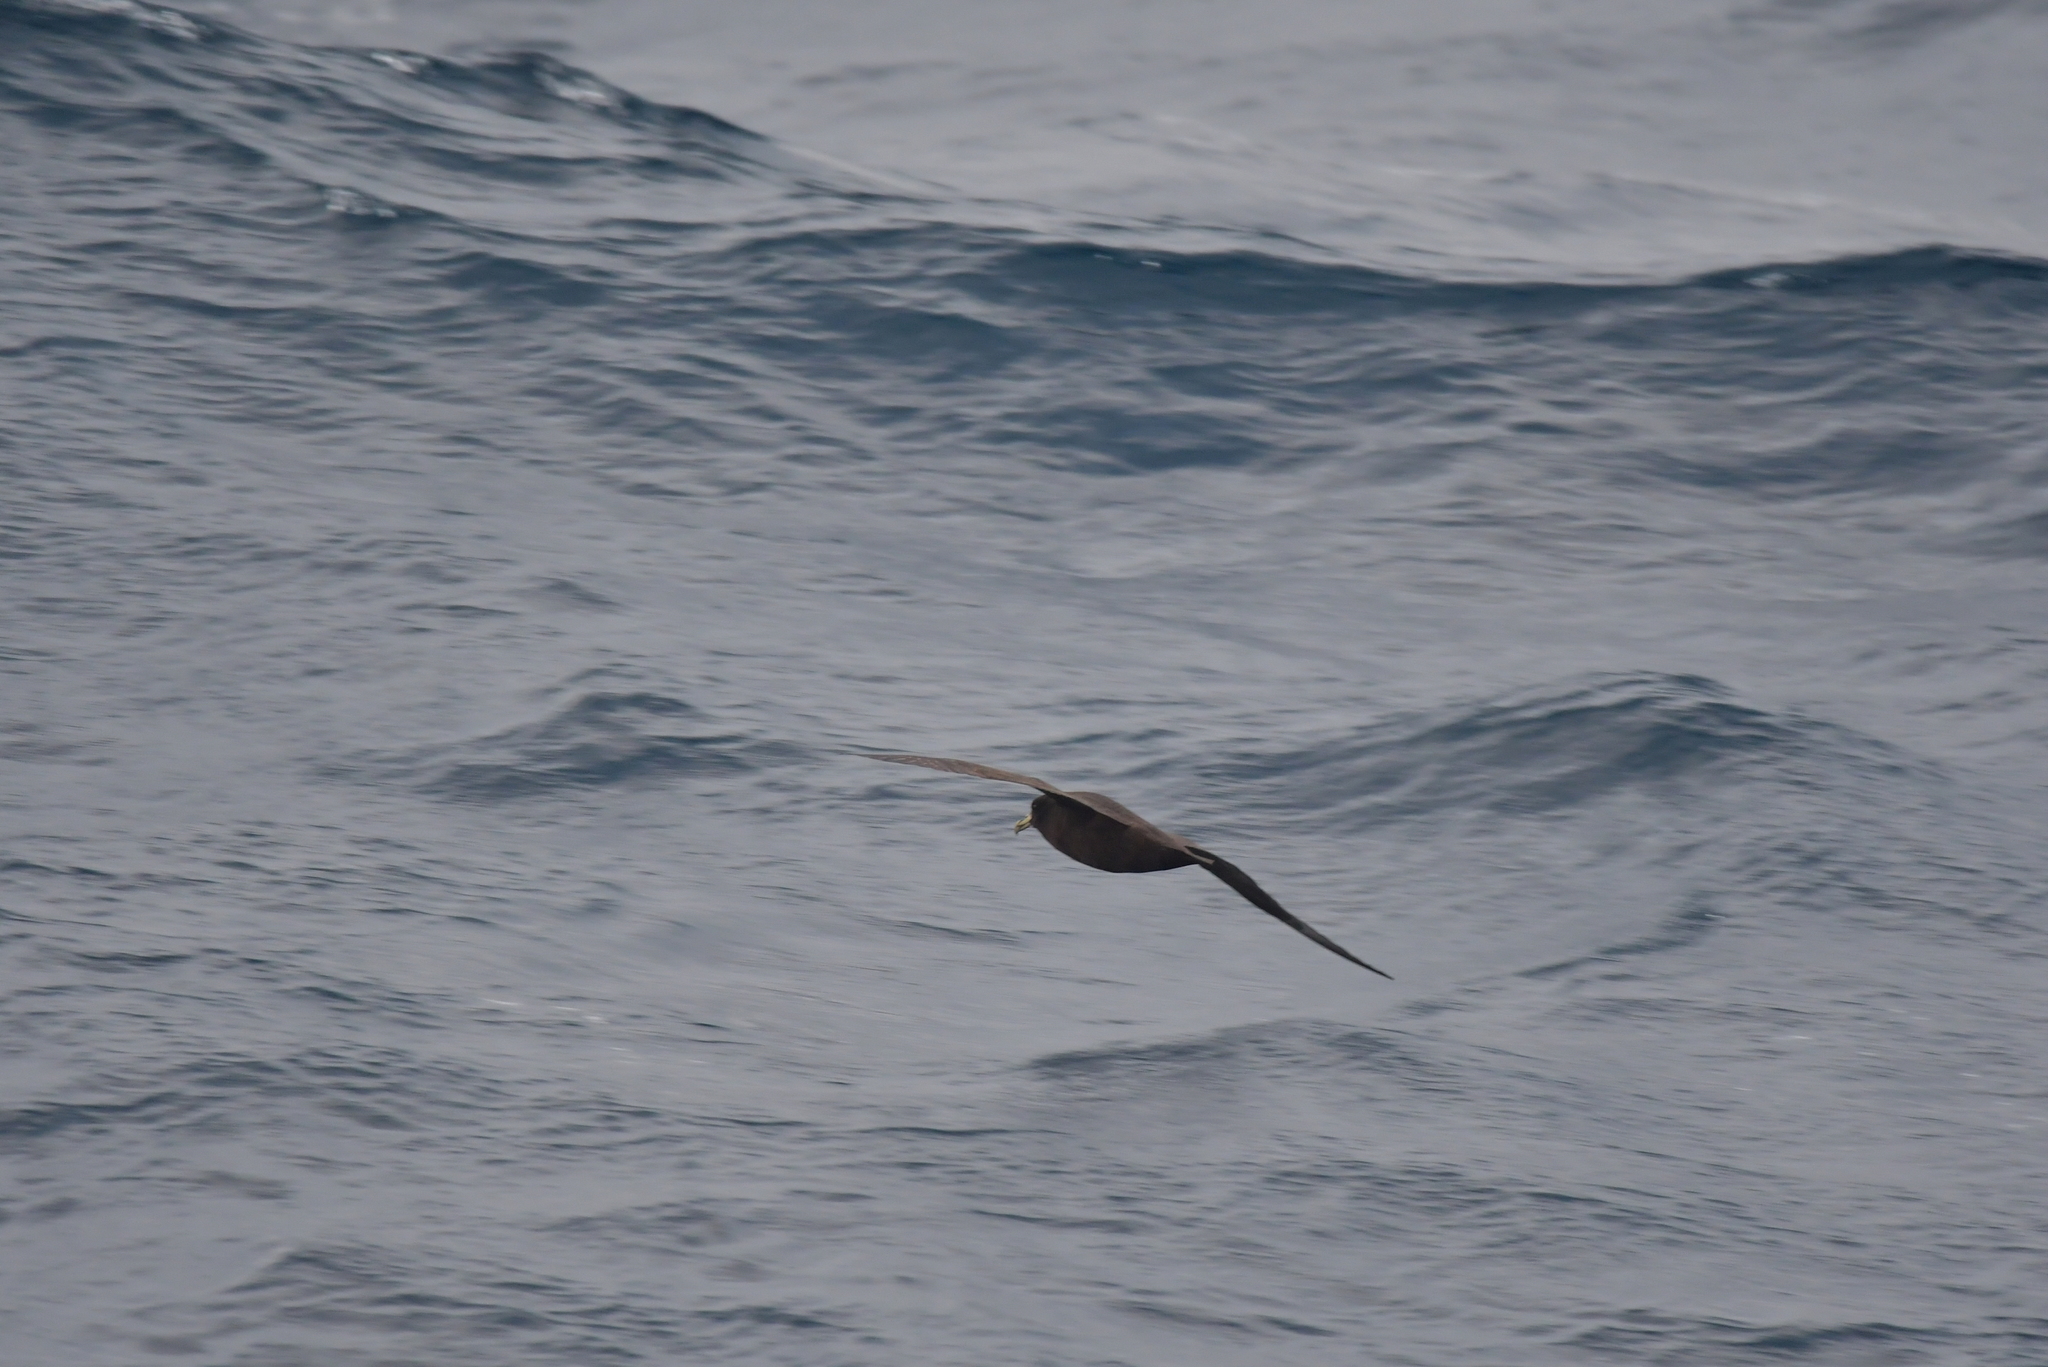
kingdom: Animalia
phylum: Chordata
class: Aves
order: Procellariiformes
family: Procellariidae
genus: Procellaria
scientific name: Procellaria aequinoctialis
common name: White-chinned petrel
